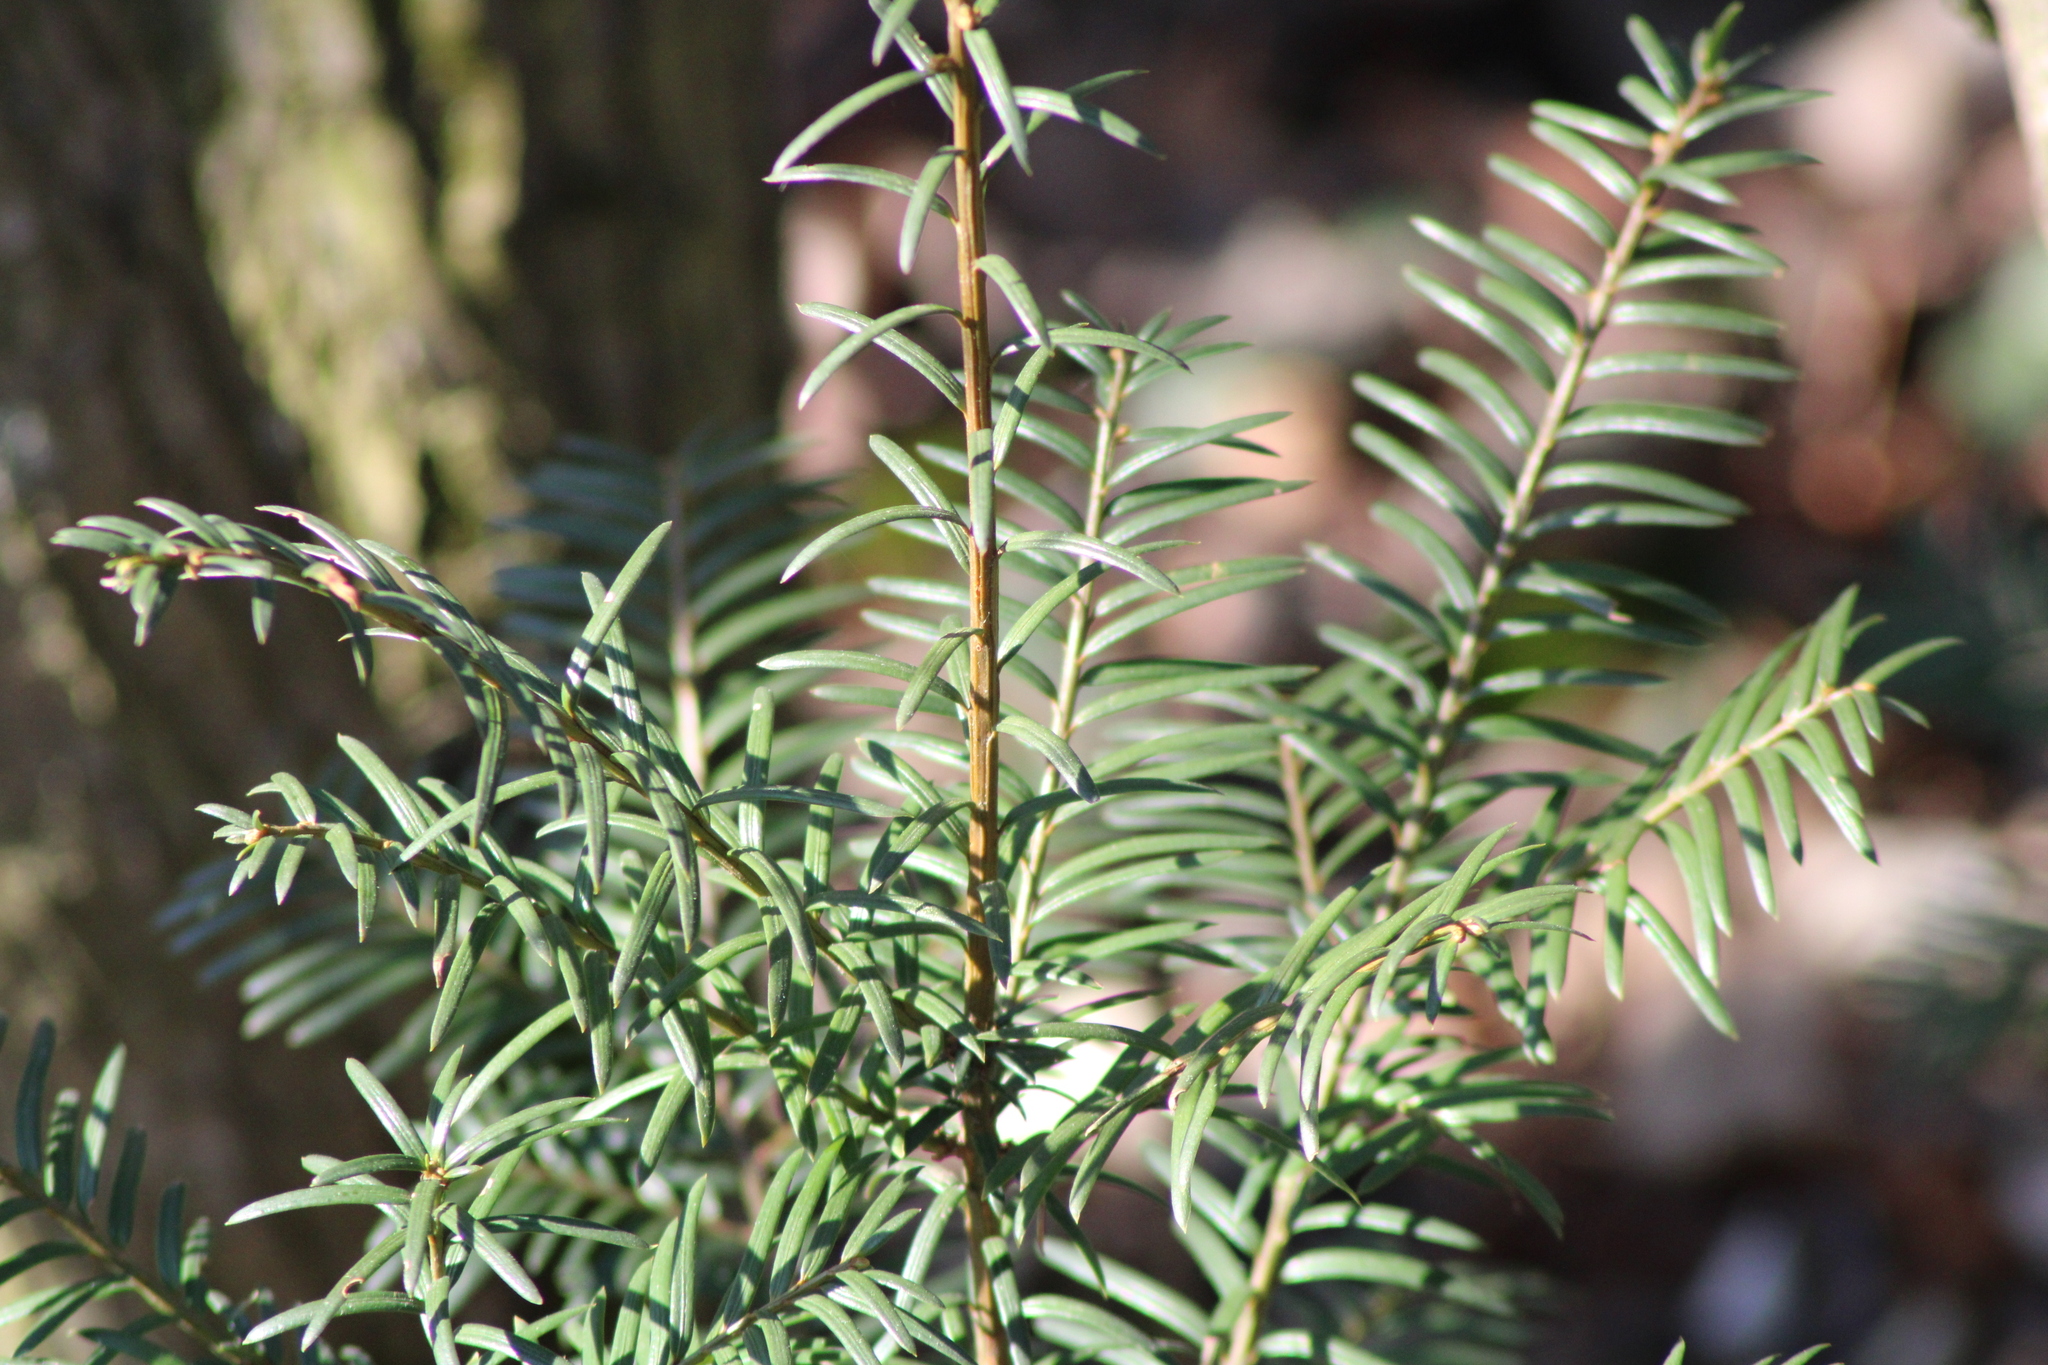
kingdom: Plantae
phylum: Tracheophyta
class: Pinopsida
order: Pinales
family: Taxaceae
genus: Taxus
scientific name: Taxus baccata
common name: Yew
